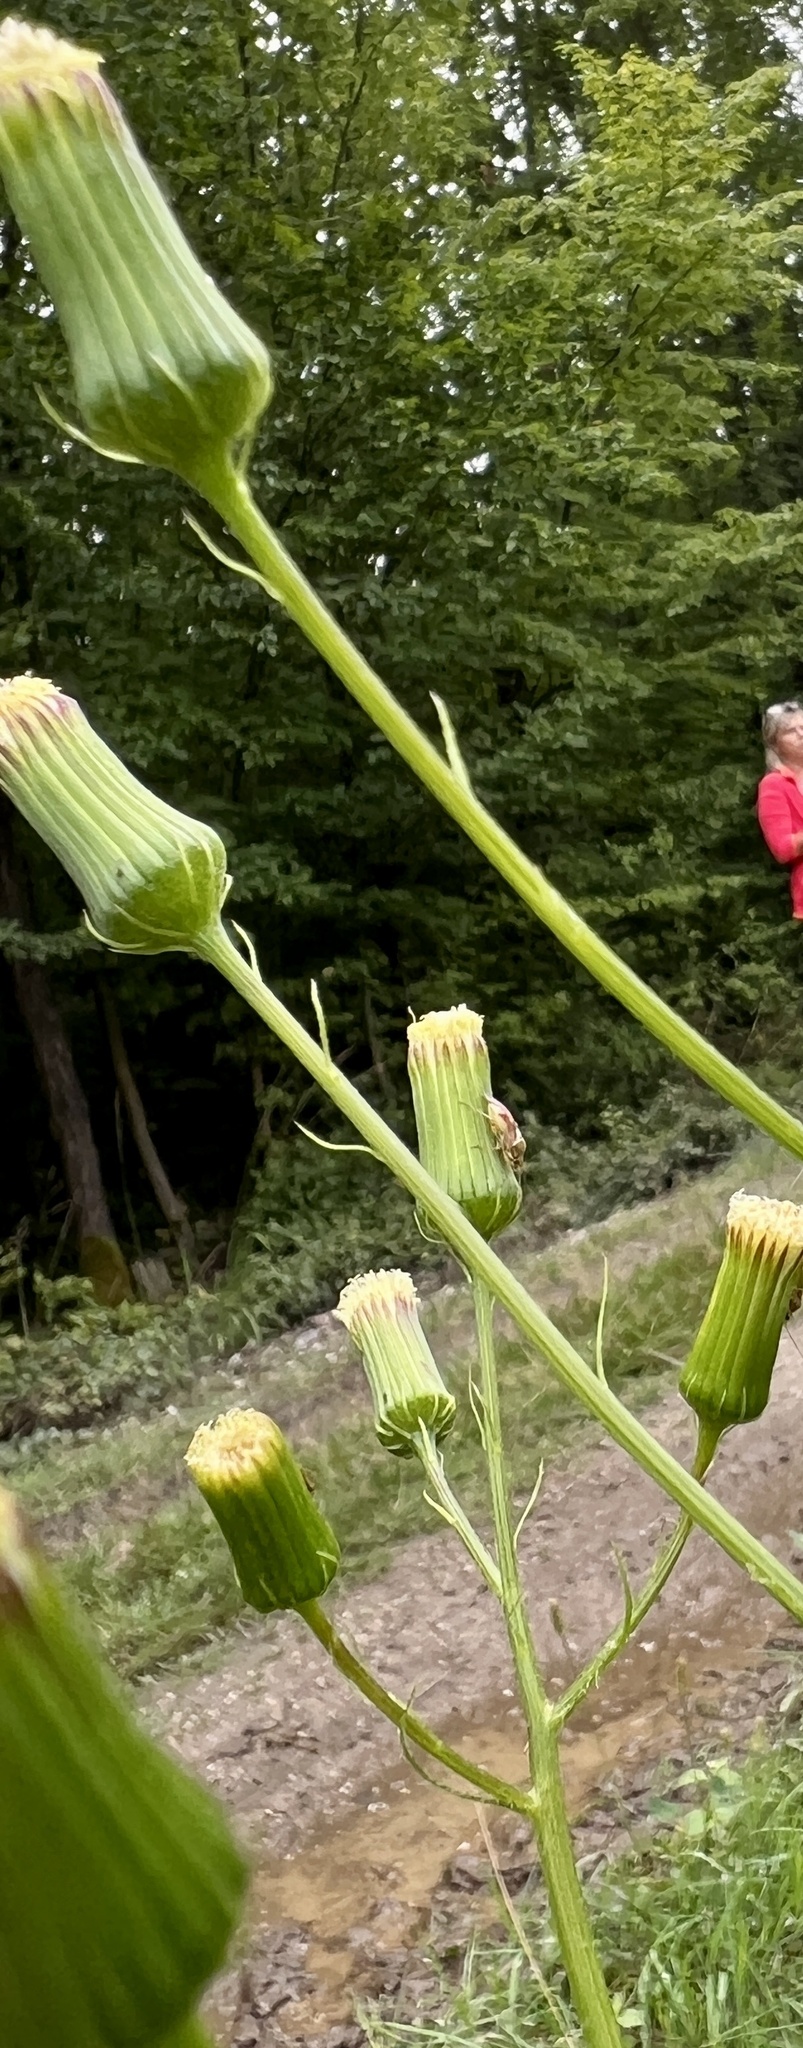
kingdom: Plantae
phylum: Tracheophyta
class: Magnoliopsida
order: Asterales
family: Asteraceae
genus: Erechtites
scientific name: Erechtites hieraciifolius
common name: American burnweed
